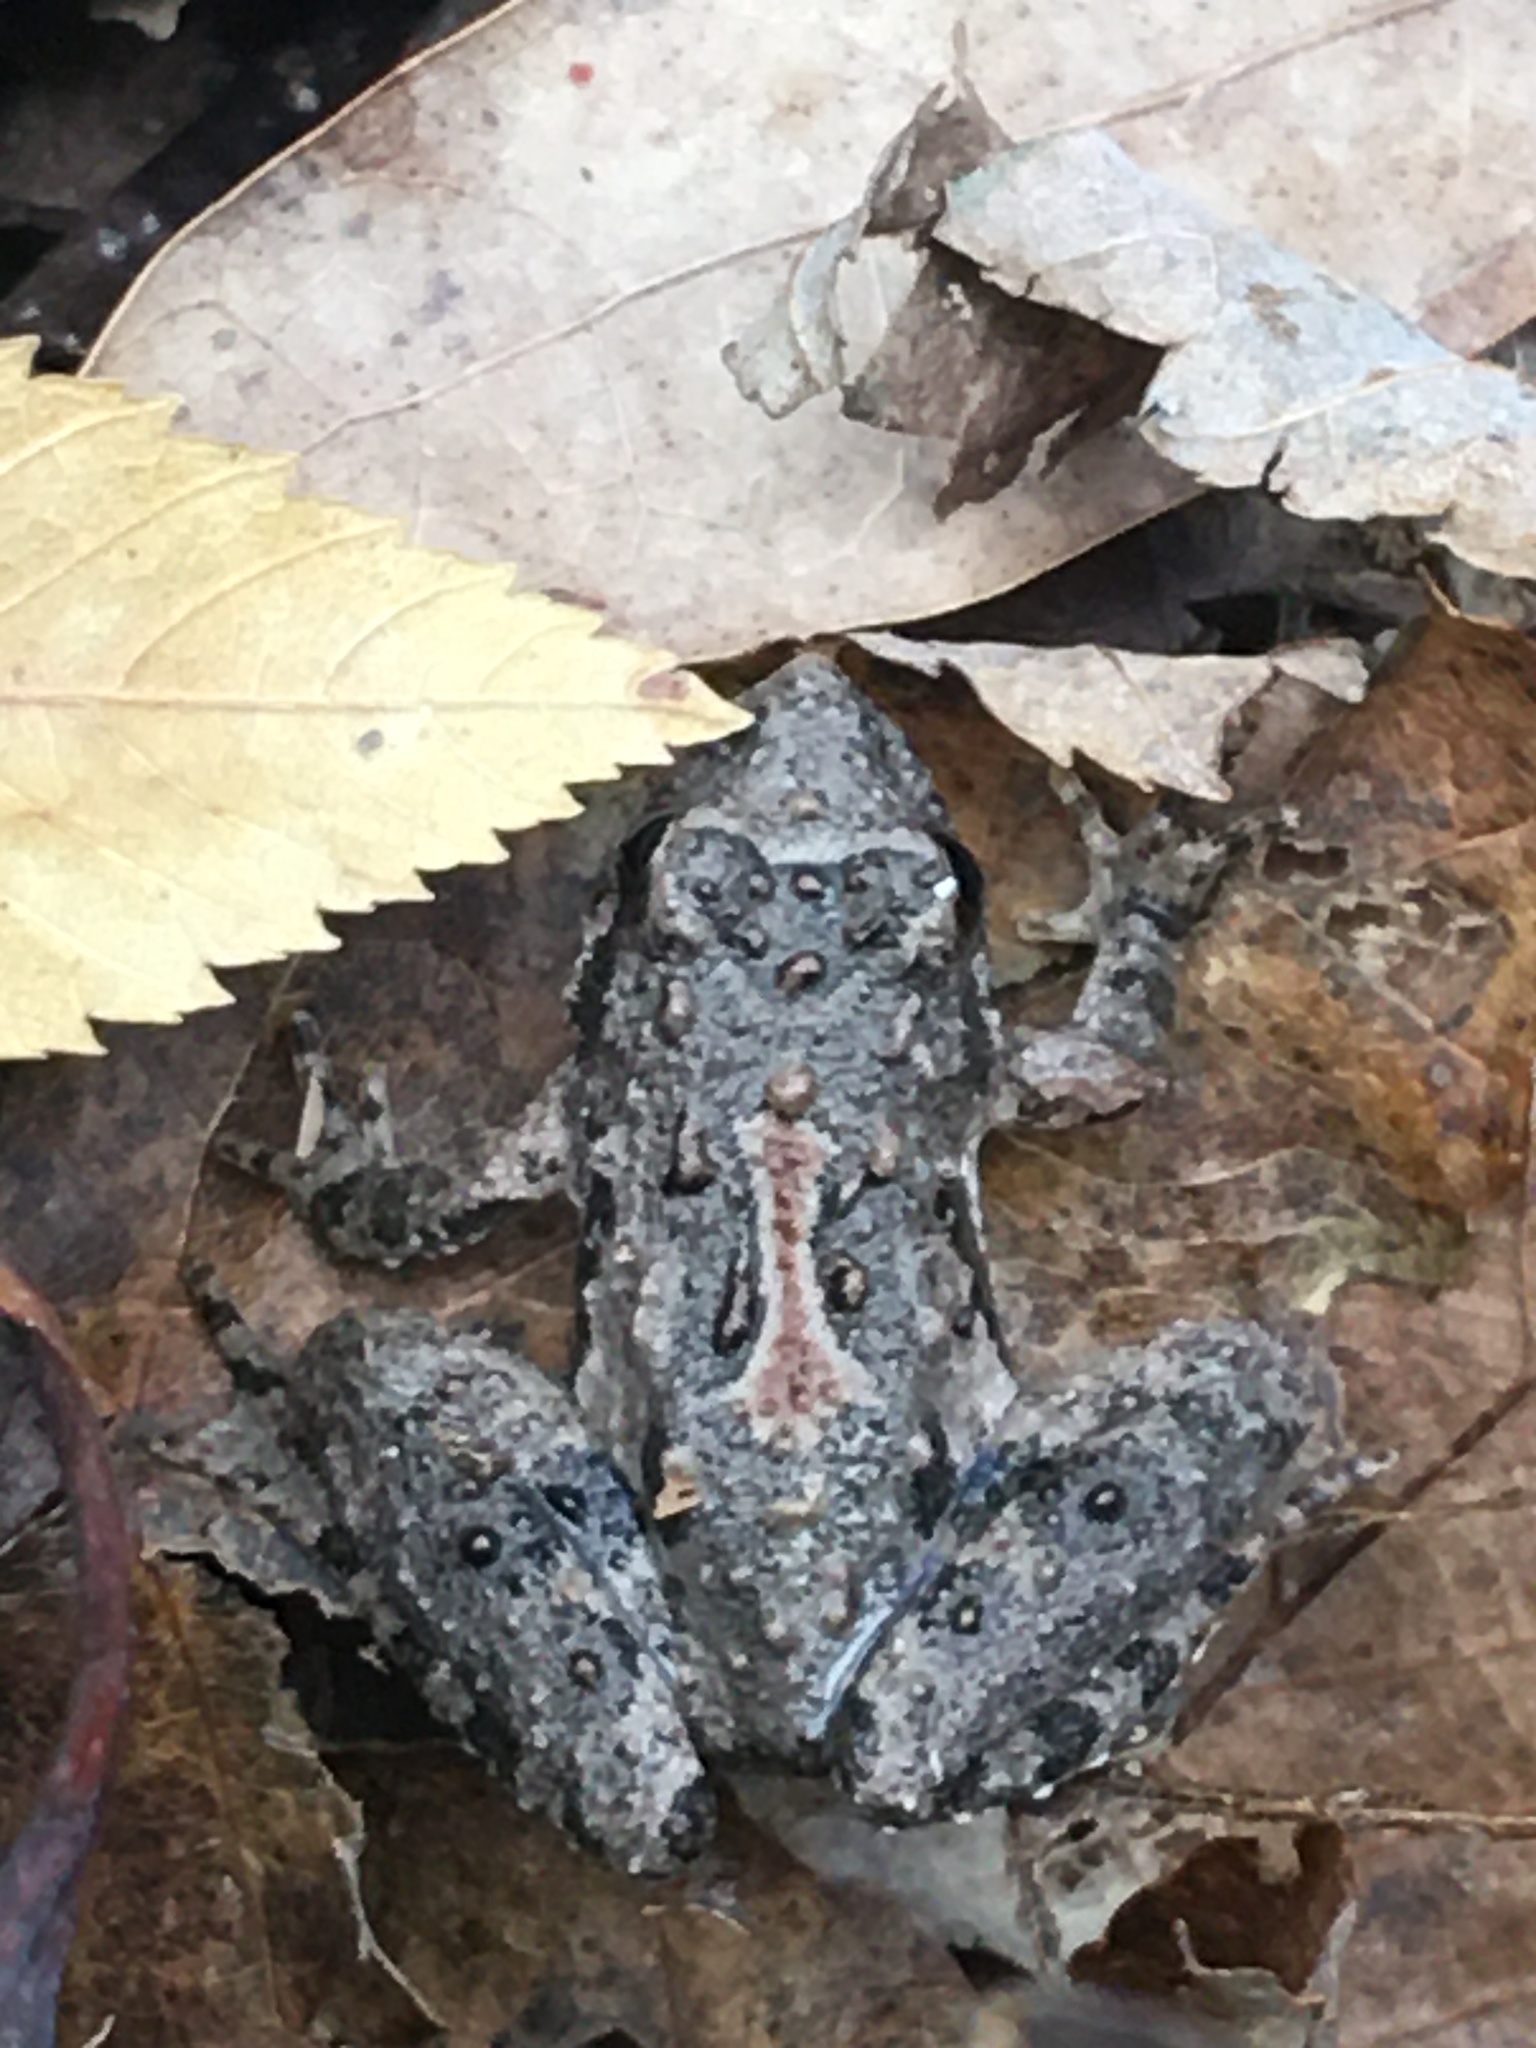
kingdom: Animalia
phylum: Chordata
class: Amphibia
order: Anura
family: Hylidae
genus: Acris
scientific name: Acris blanchardi
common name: Blanchard's cricket frog
